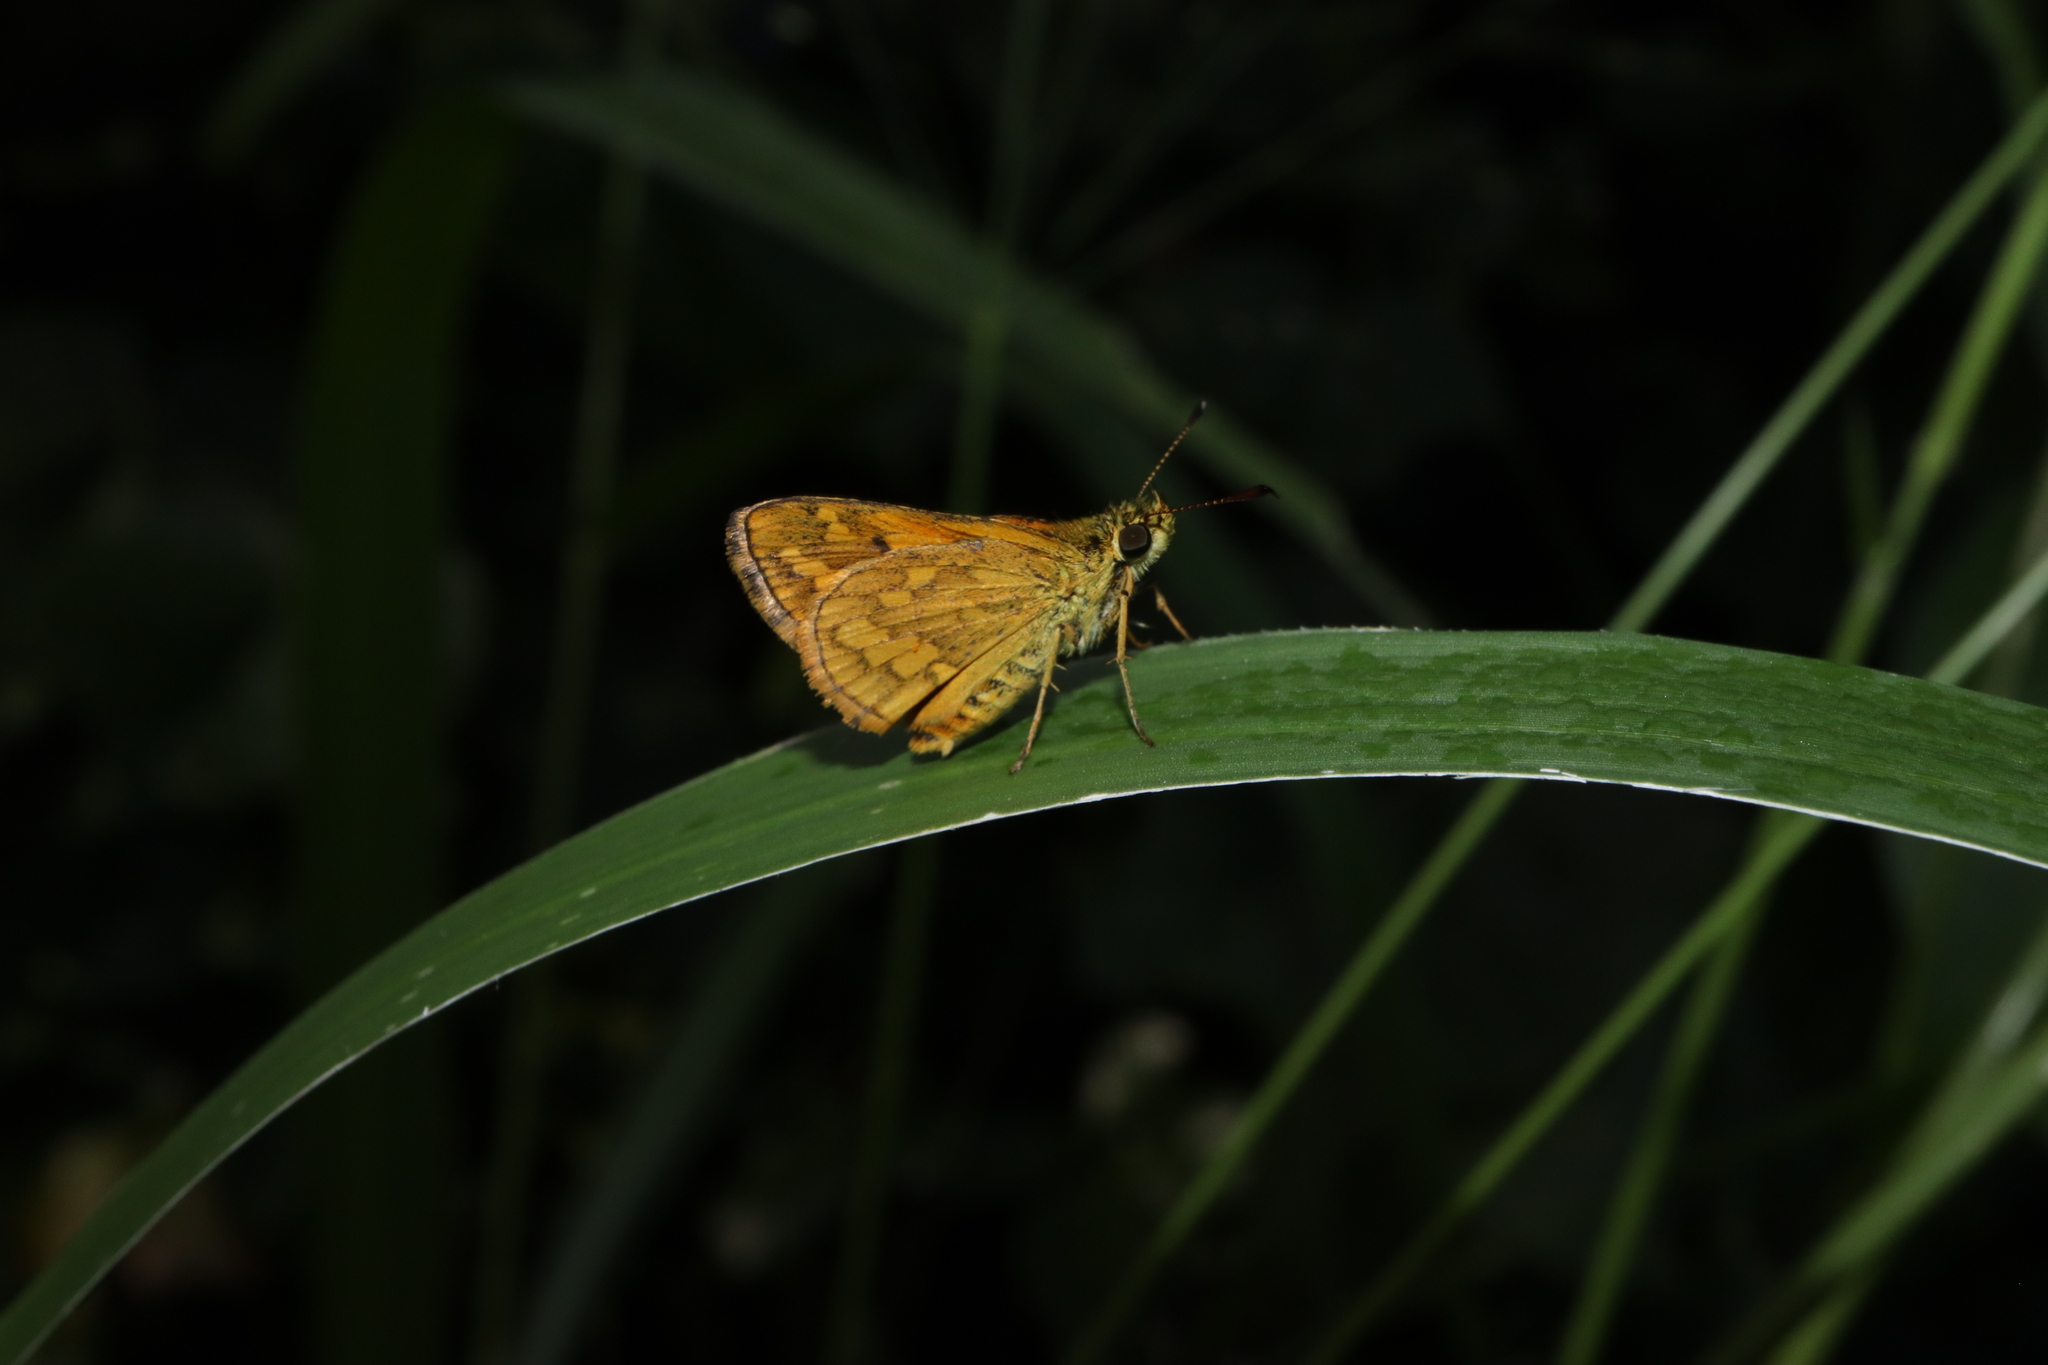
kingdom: Animalia
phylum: Arthropoda
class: Insecta
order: Lepidoptera
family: Hesperiidae
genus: Suniana
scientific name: Suniana sunias
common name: Wide-brand grass-dart
